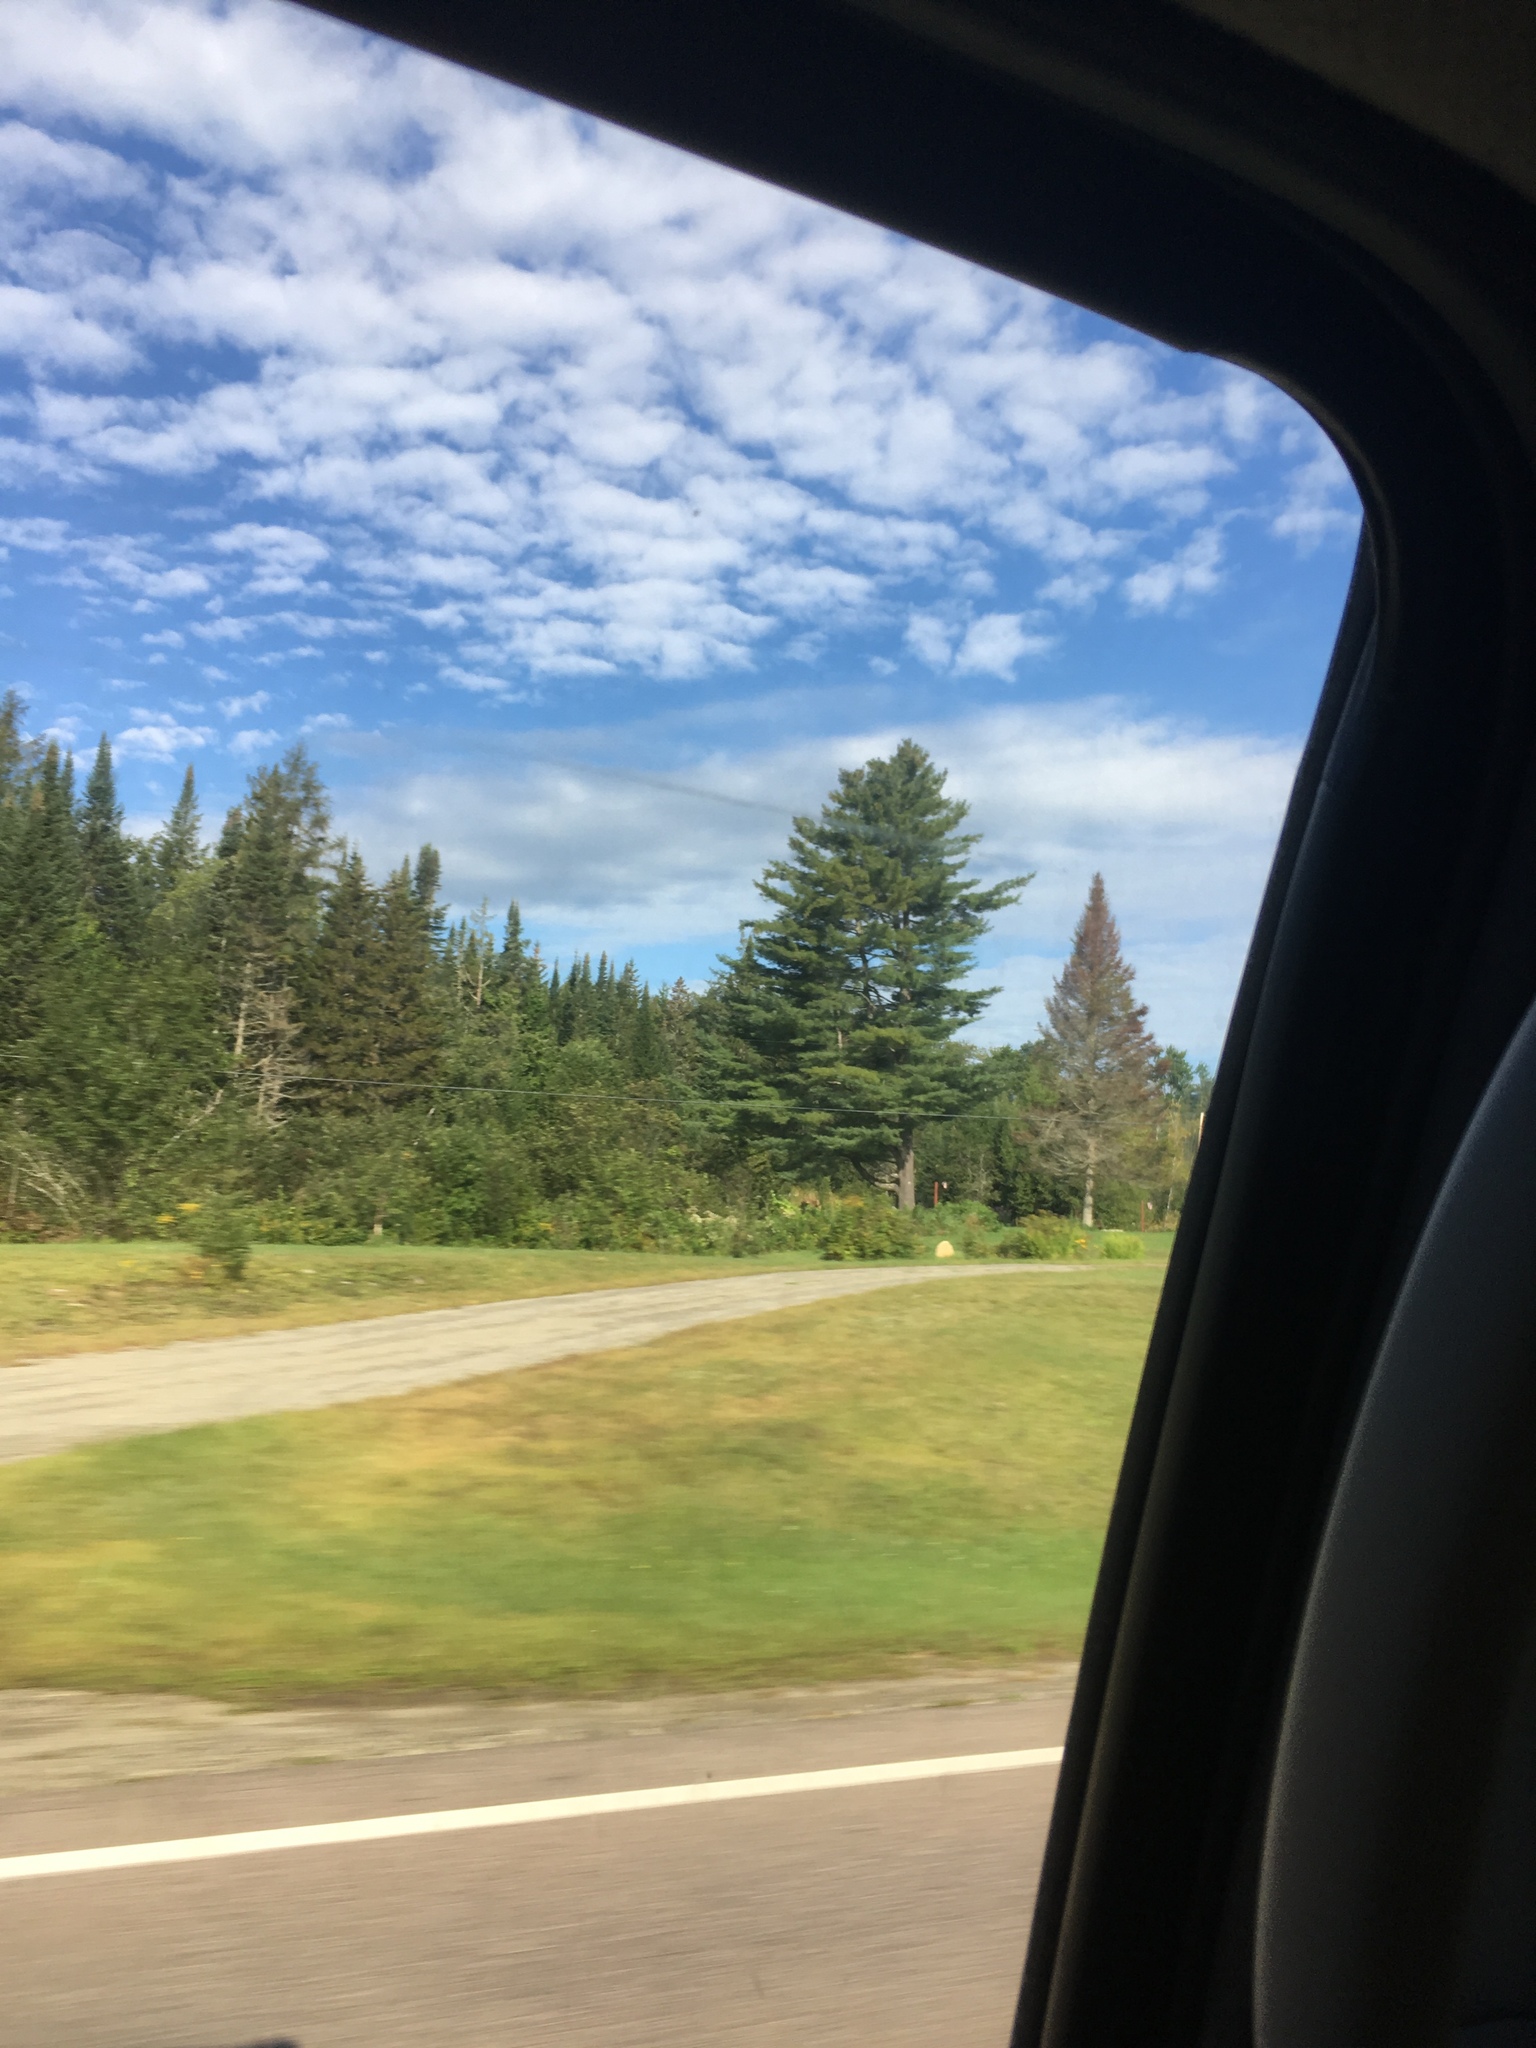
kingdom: Plantae
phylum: Tracheophyta
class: Pinopsida
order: Pinales
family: Pinaceae
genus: Pinus
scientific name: Pinus strobus
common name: Weymouth pine
